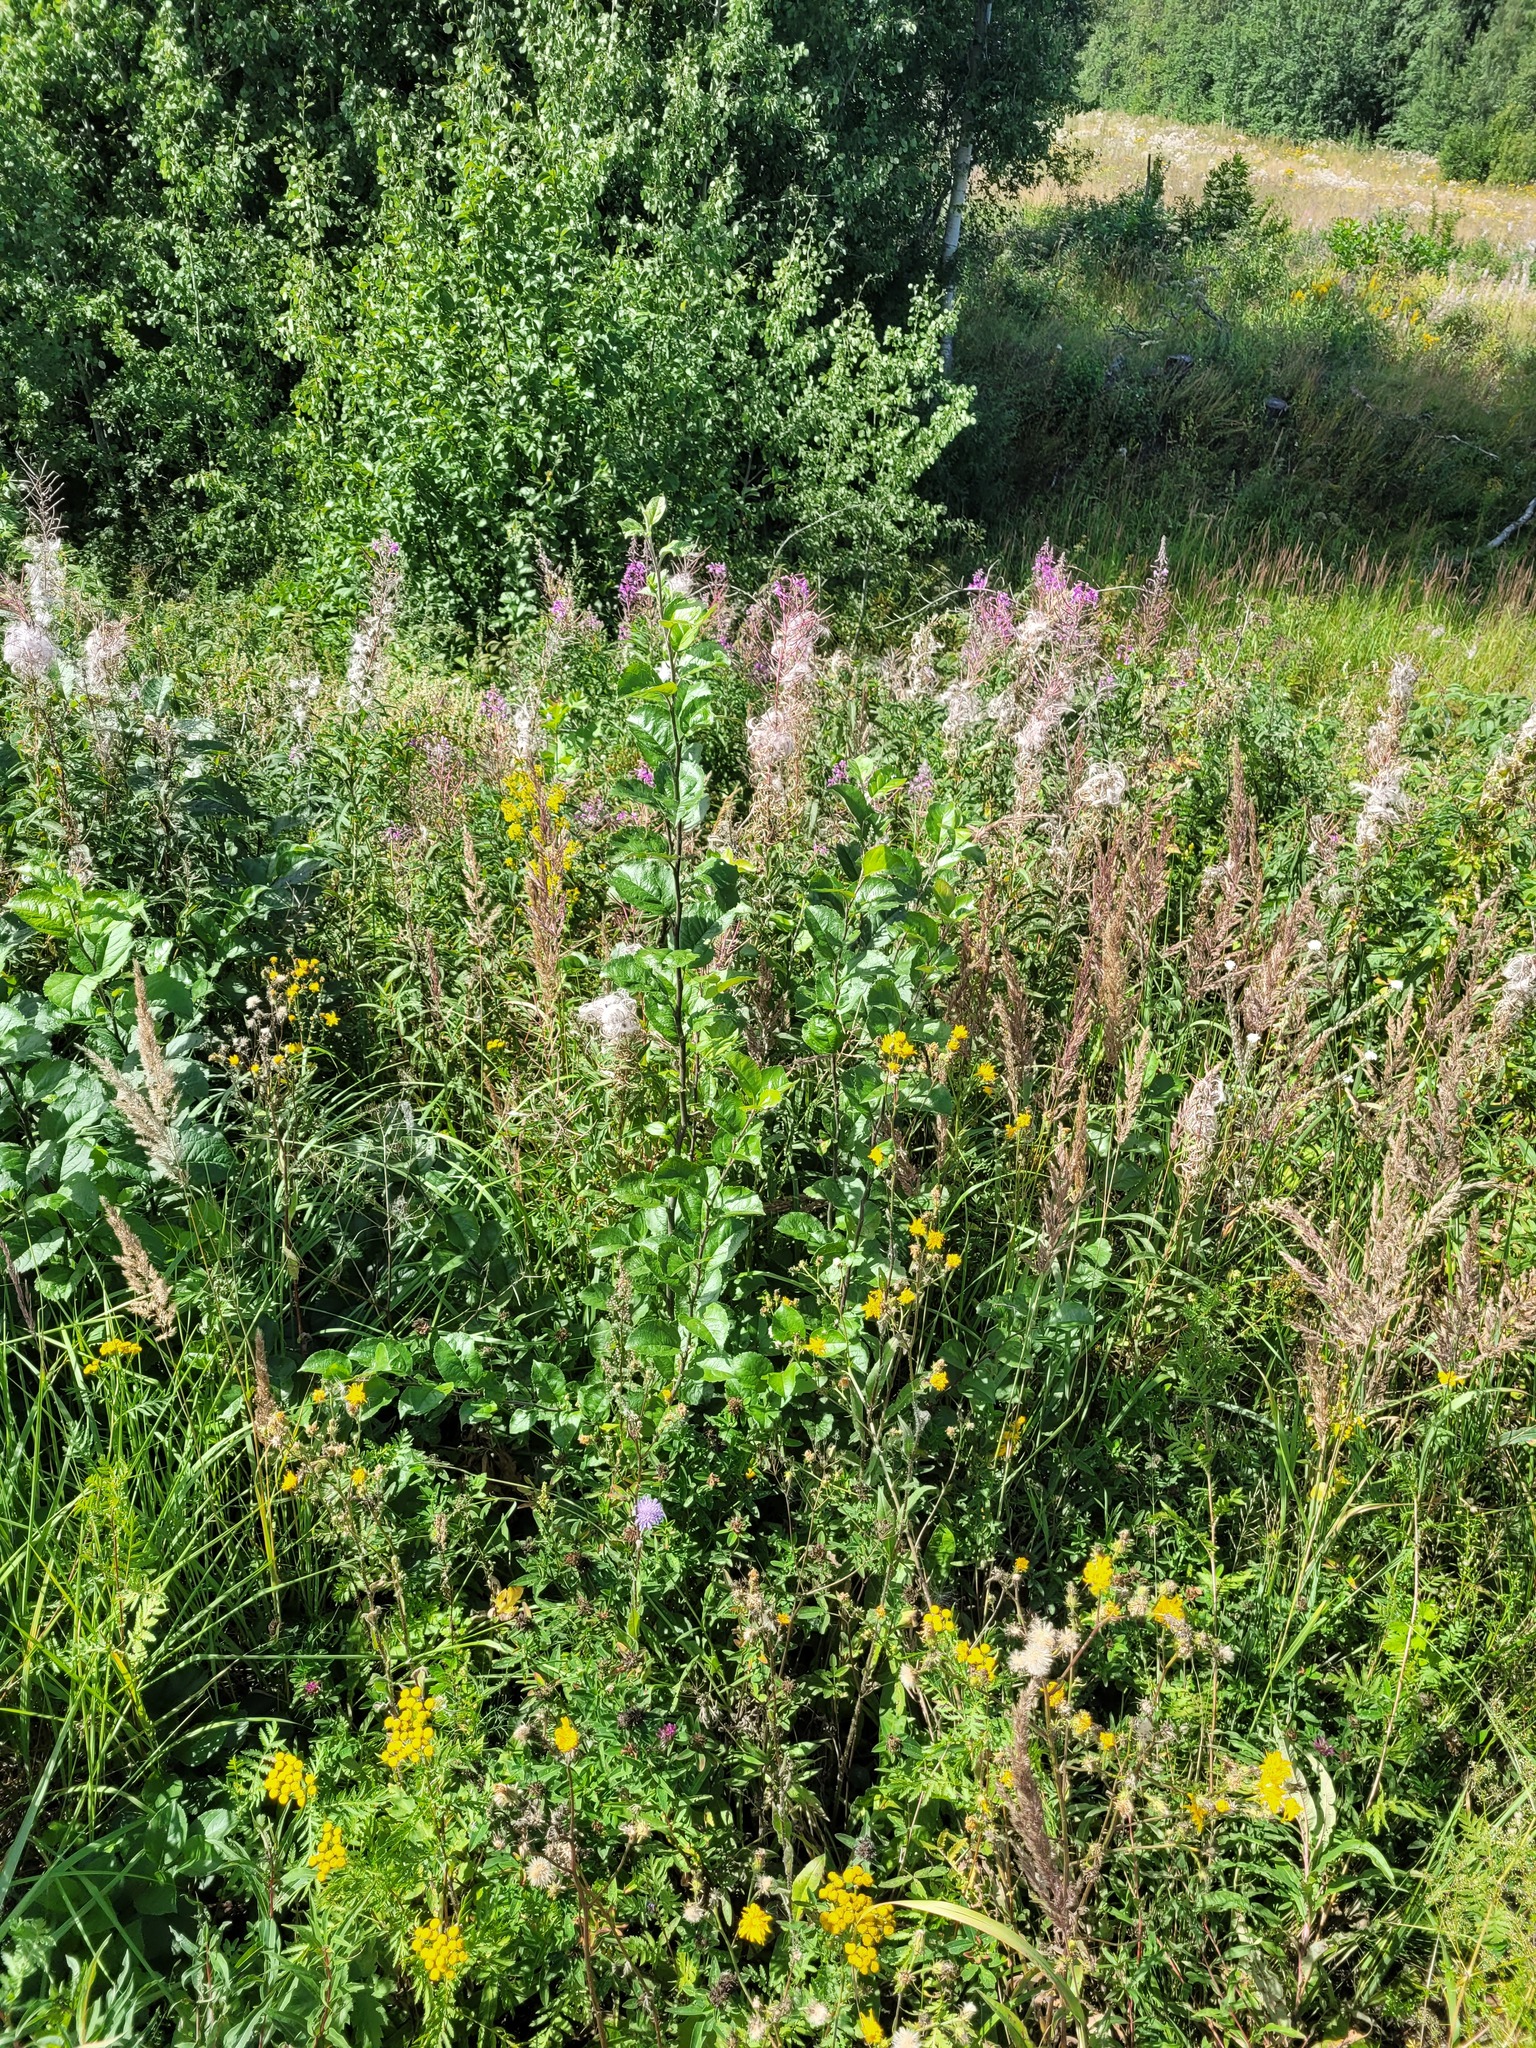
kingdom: Plantae
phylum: Tracheophyta
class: Magnoliopsida
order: Rosales
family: Rosaceae
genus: Malus
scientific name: Malus domestica
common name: Apple
